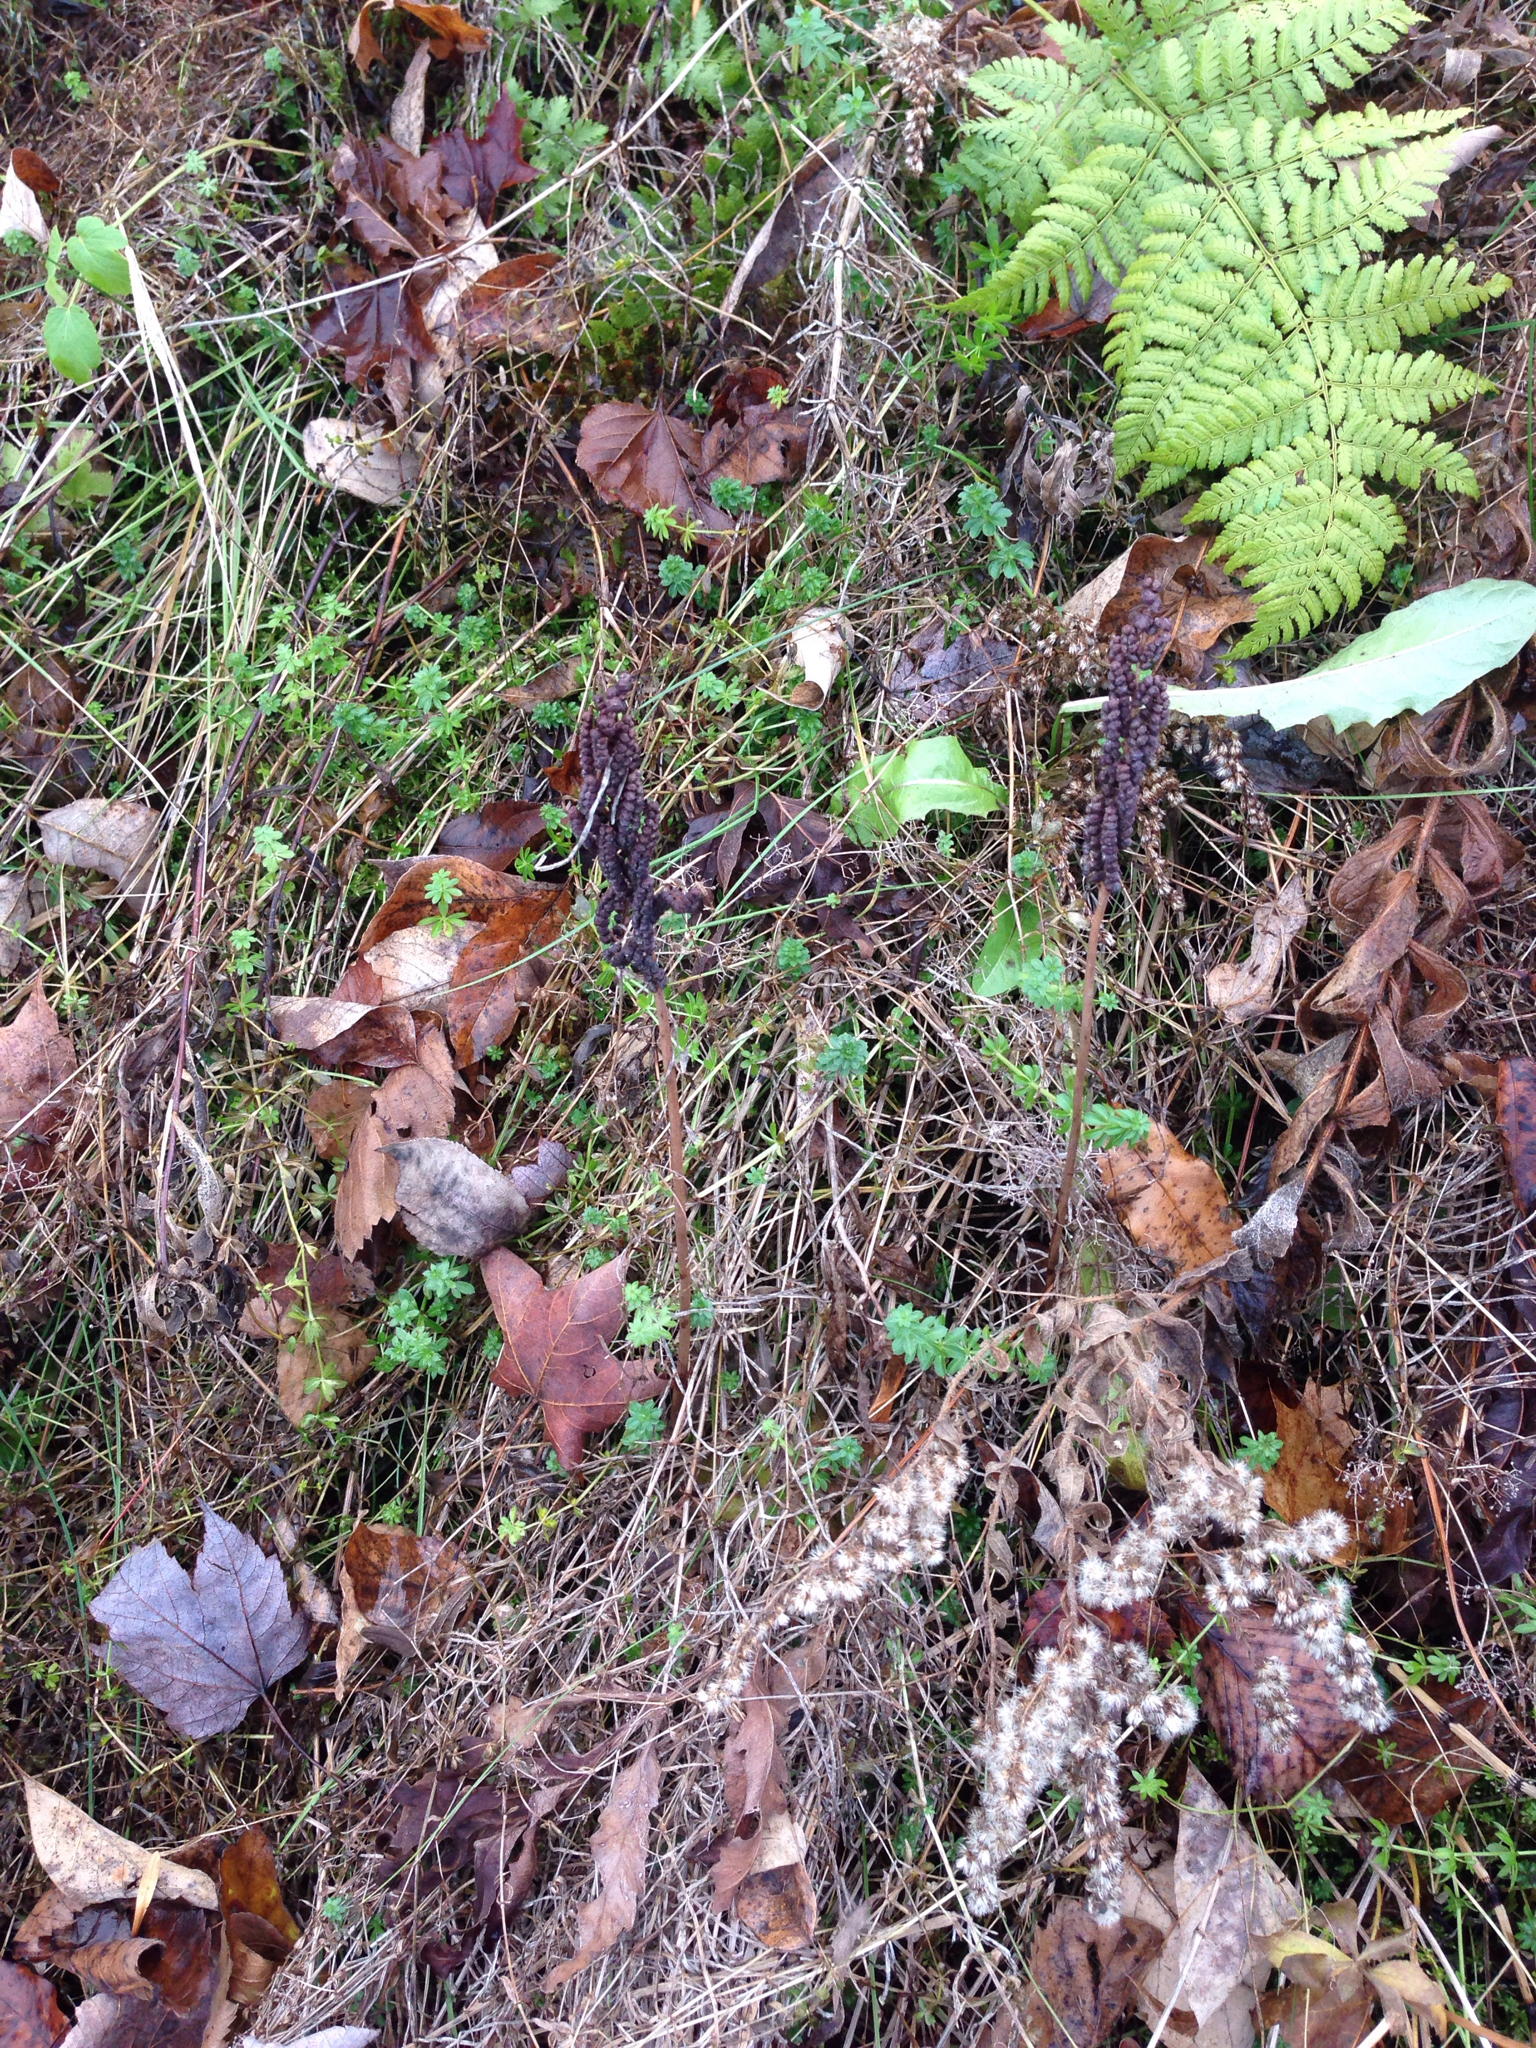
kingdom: Plantae
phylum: Tracheophyta
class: Polypodiopsida
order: Polypodiales
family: Onocleaceae
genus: Onoclea
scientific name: Onoclea sensibilis
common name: Sensitive fern
